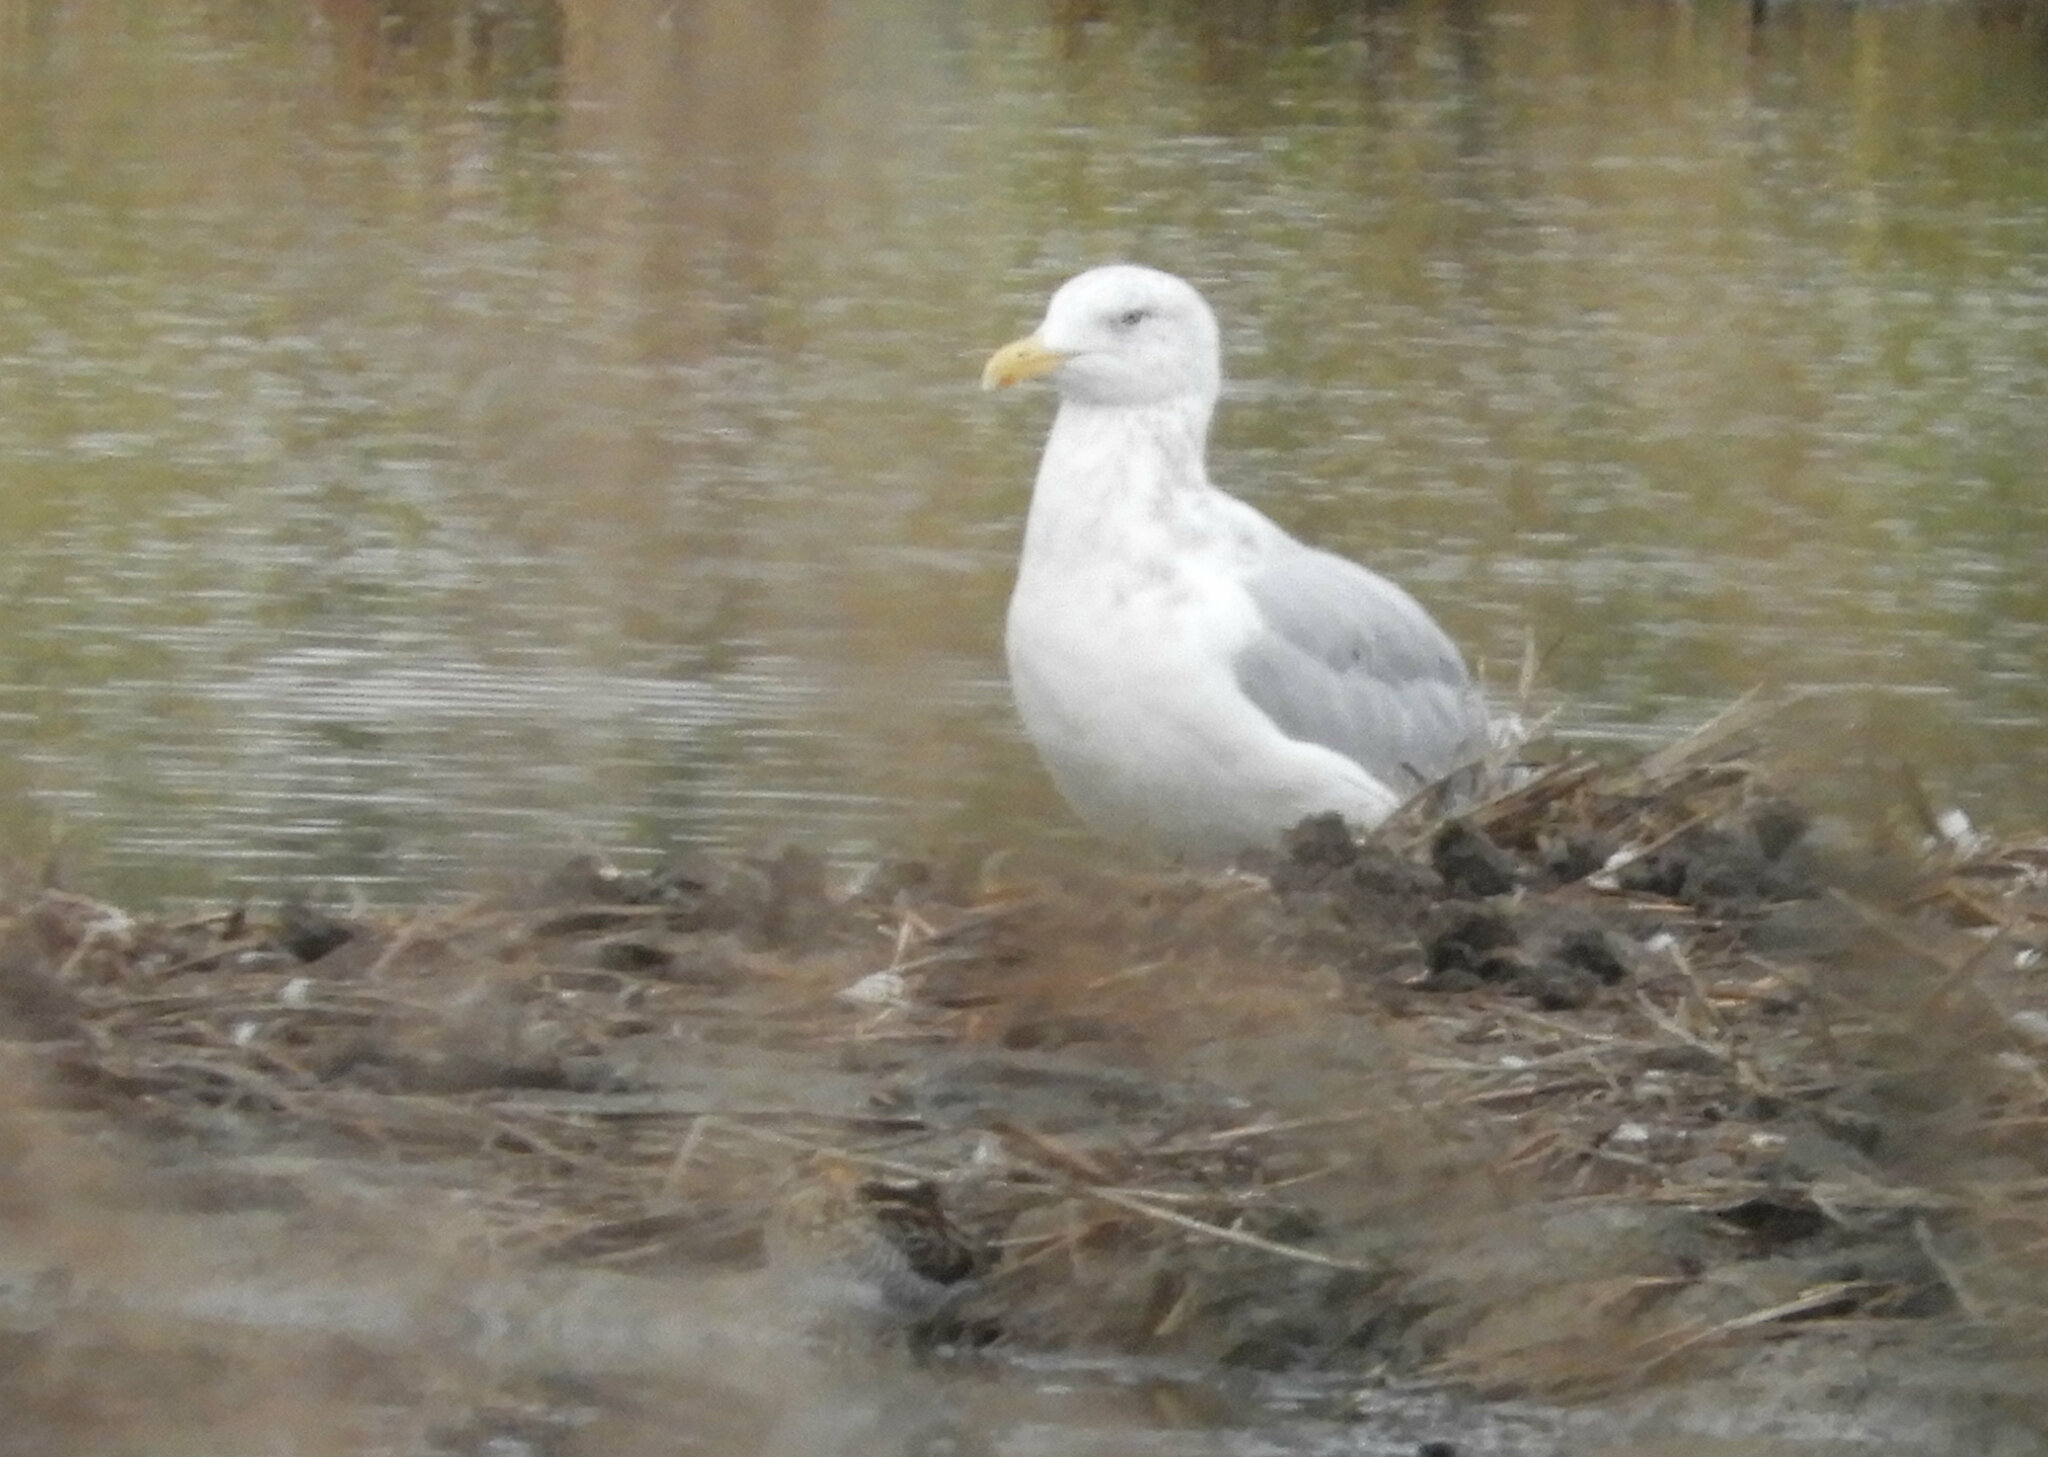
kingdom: Animalia
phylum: Chordata
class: Aves
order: Charadriiformes
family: Laridae
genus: Larus
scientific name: Larus argentatus
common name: Herring gull
